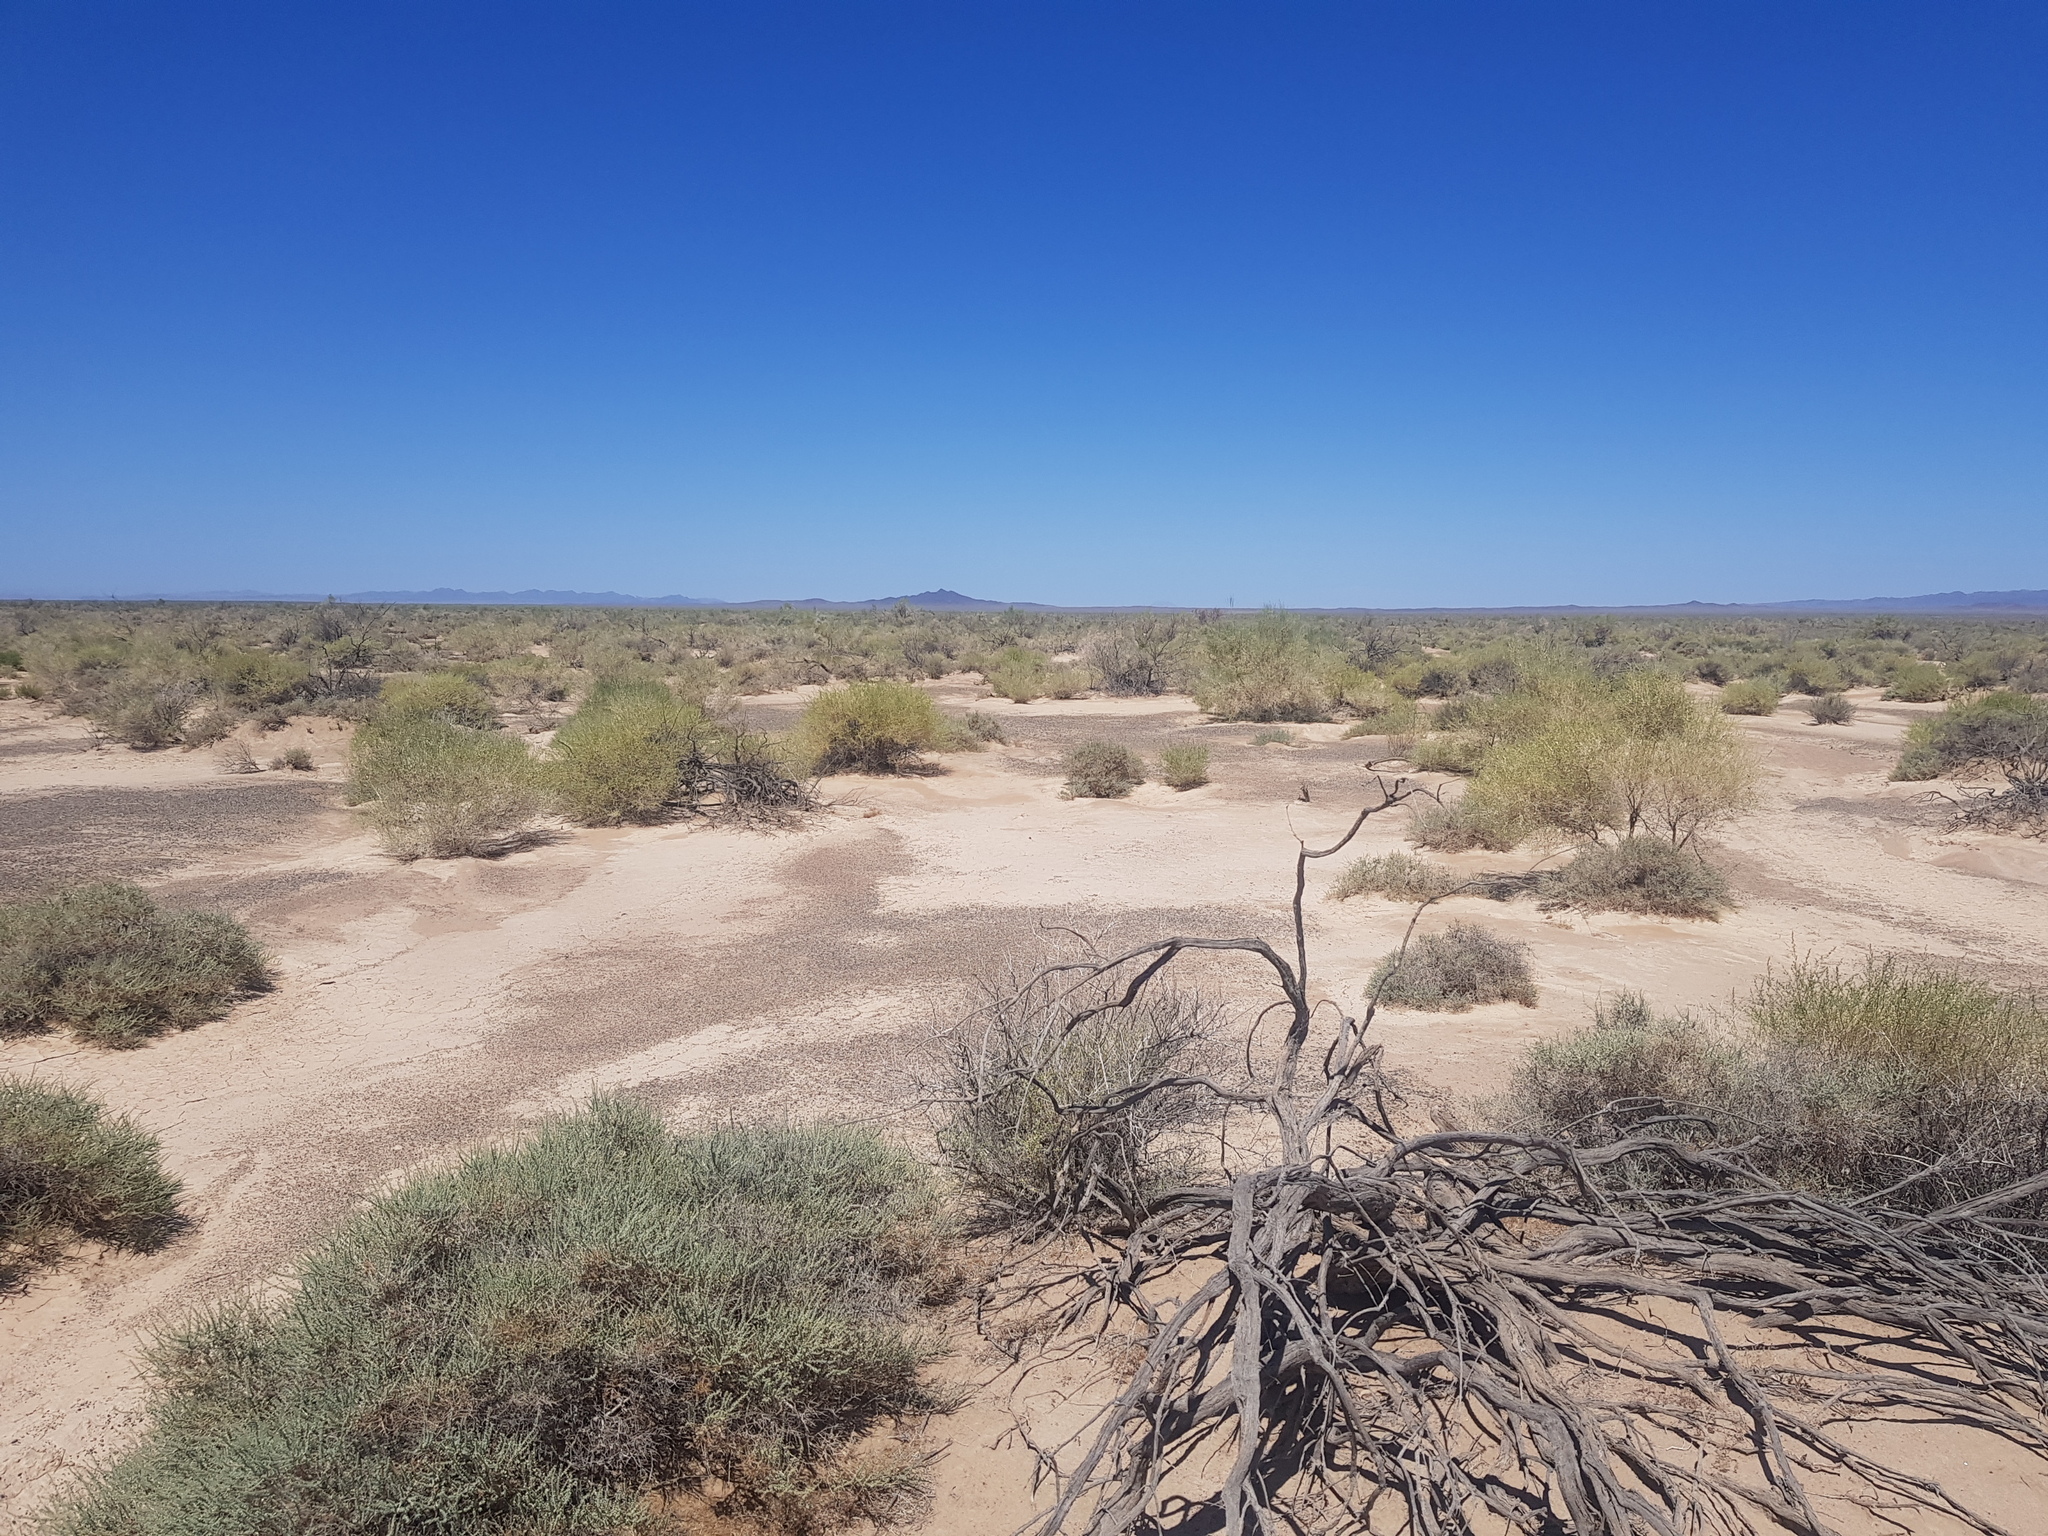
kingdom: Plantae
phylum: Tracheophyta
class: Magnoliopsida
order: Caryophyllales
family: Amaranthaceae
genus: Haloxylon
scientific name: Haloxylon ammodendron
